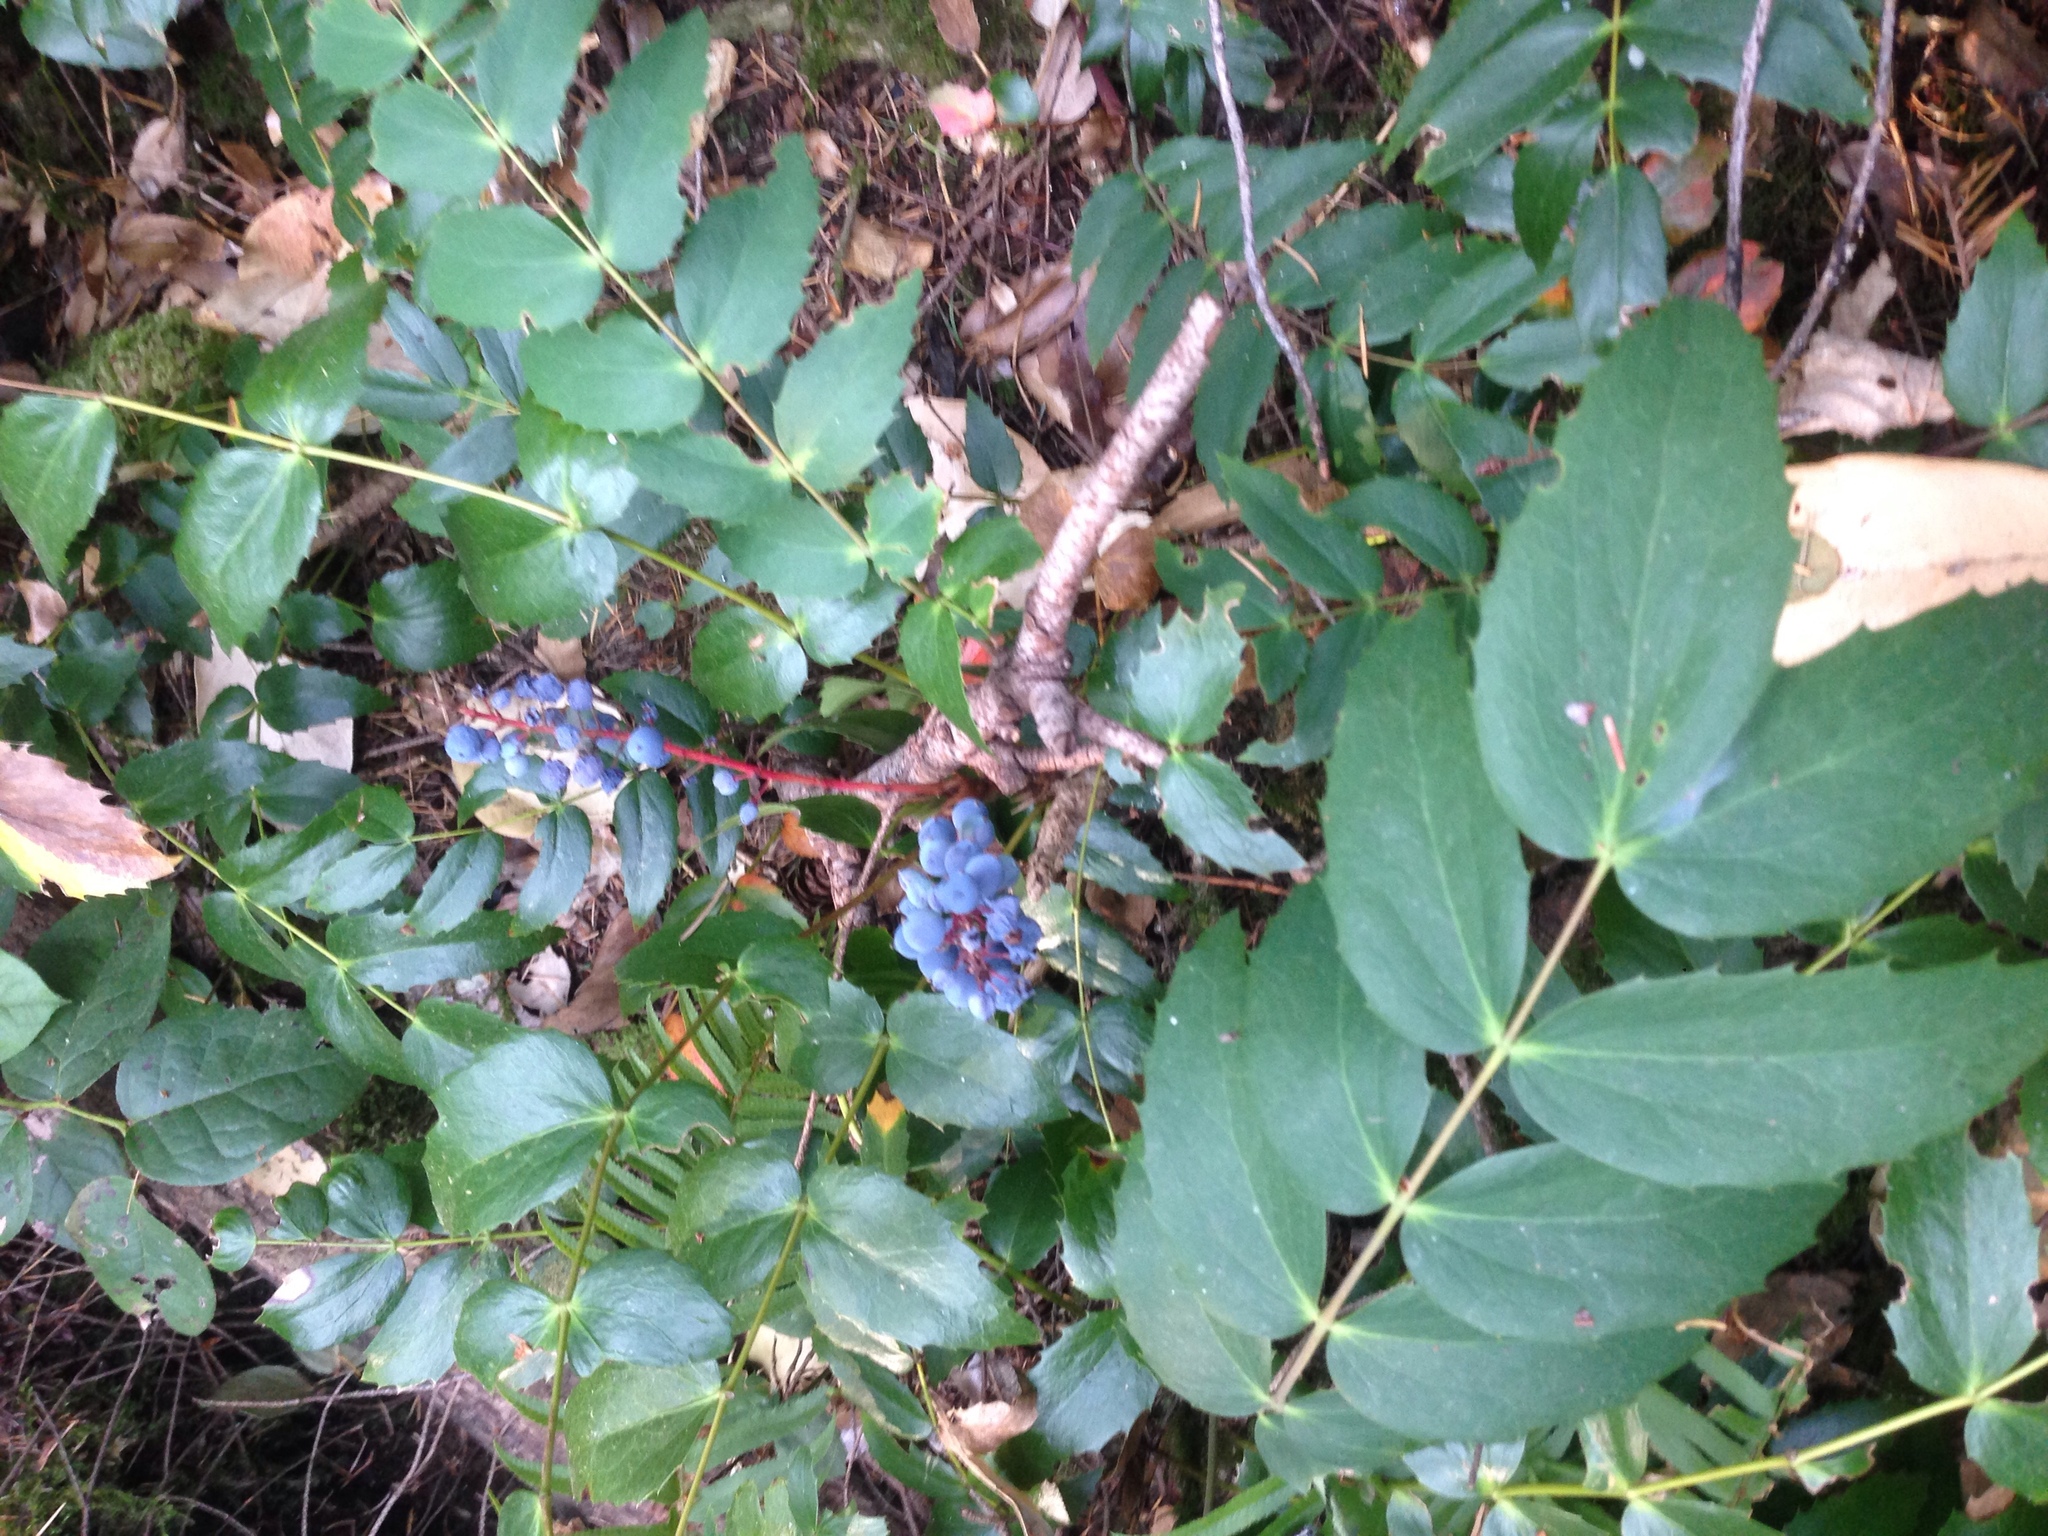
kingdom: Plantae
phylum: Tracheophyta
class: Magnoliopsida
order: Ranunculales
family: Berberidaceae
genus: Mahonia
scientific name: Mahonia nervosa
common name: Cascade oregon-grape
